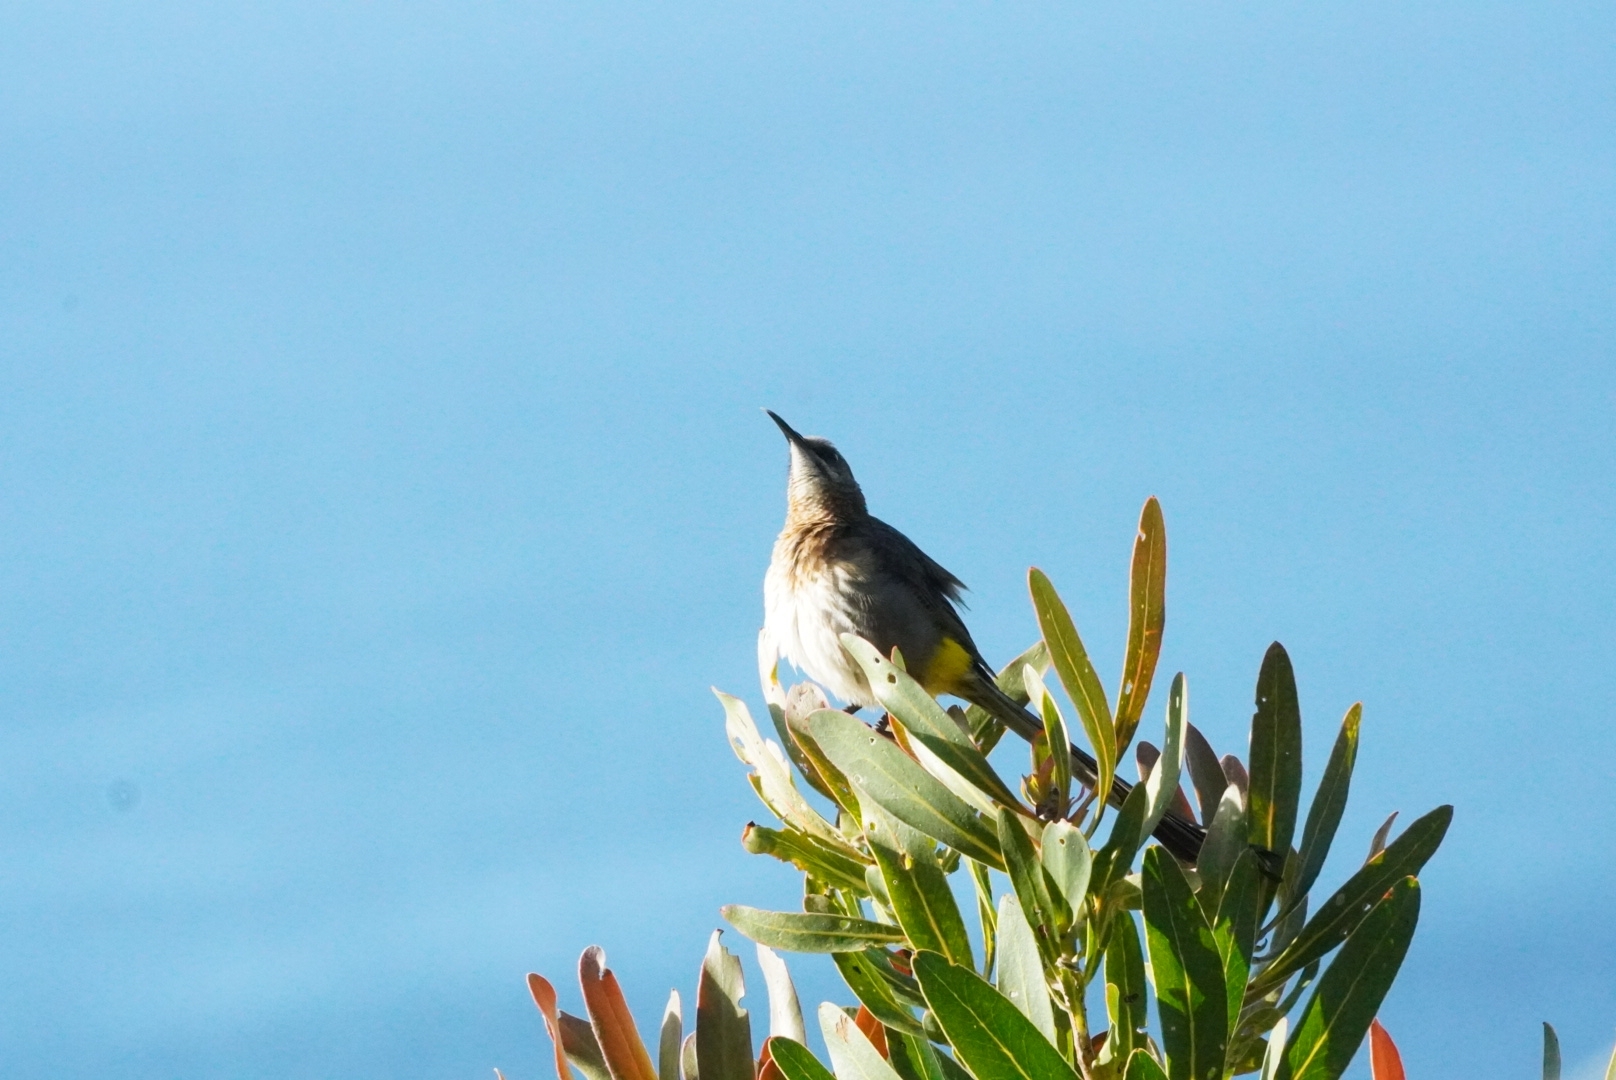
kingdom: Animalia
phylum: Chordata
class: Aves
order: Passeriformes
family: Promeropidae
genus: Promerops
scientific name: Promerops cafer
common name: Cape sugarbird
